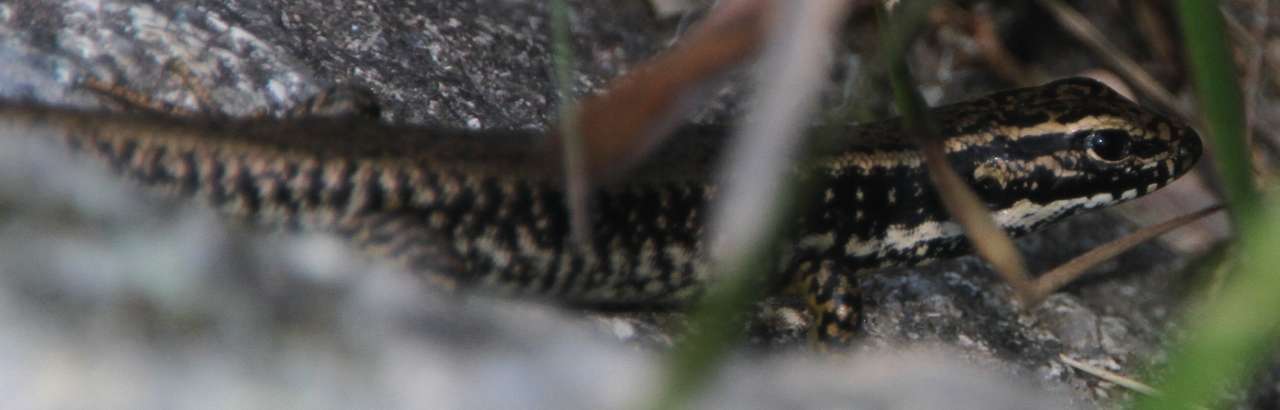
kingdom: Animalia
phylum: Chordata
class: Squamata
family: Scincidae
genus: Eulamprus
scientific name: Eulamprus heatwolei
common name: Warm-temperate water-skink
